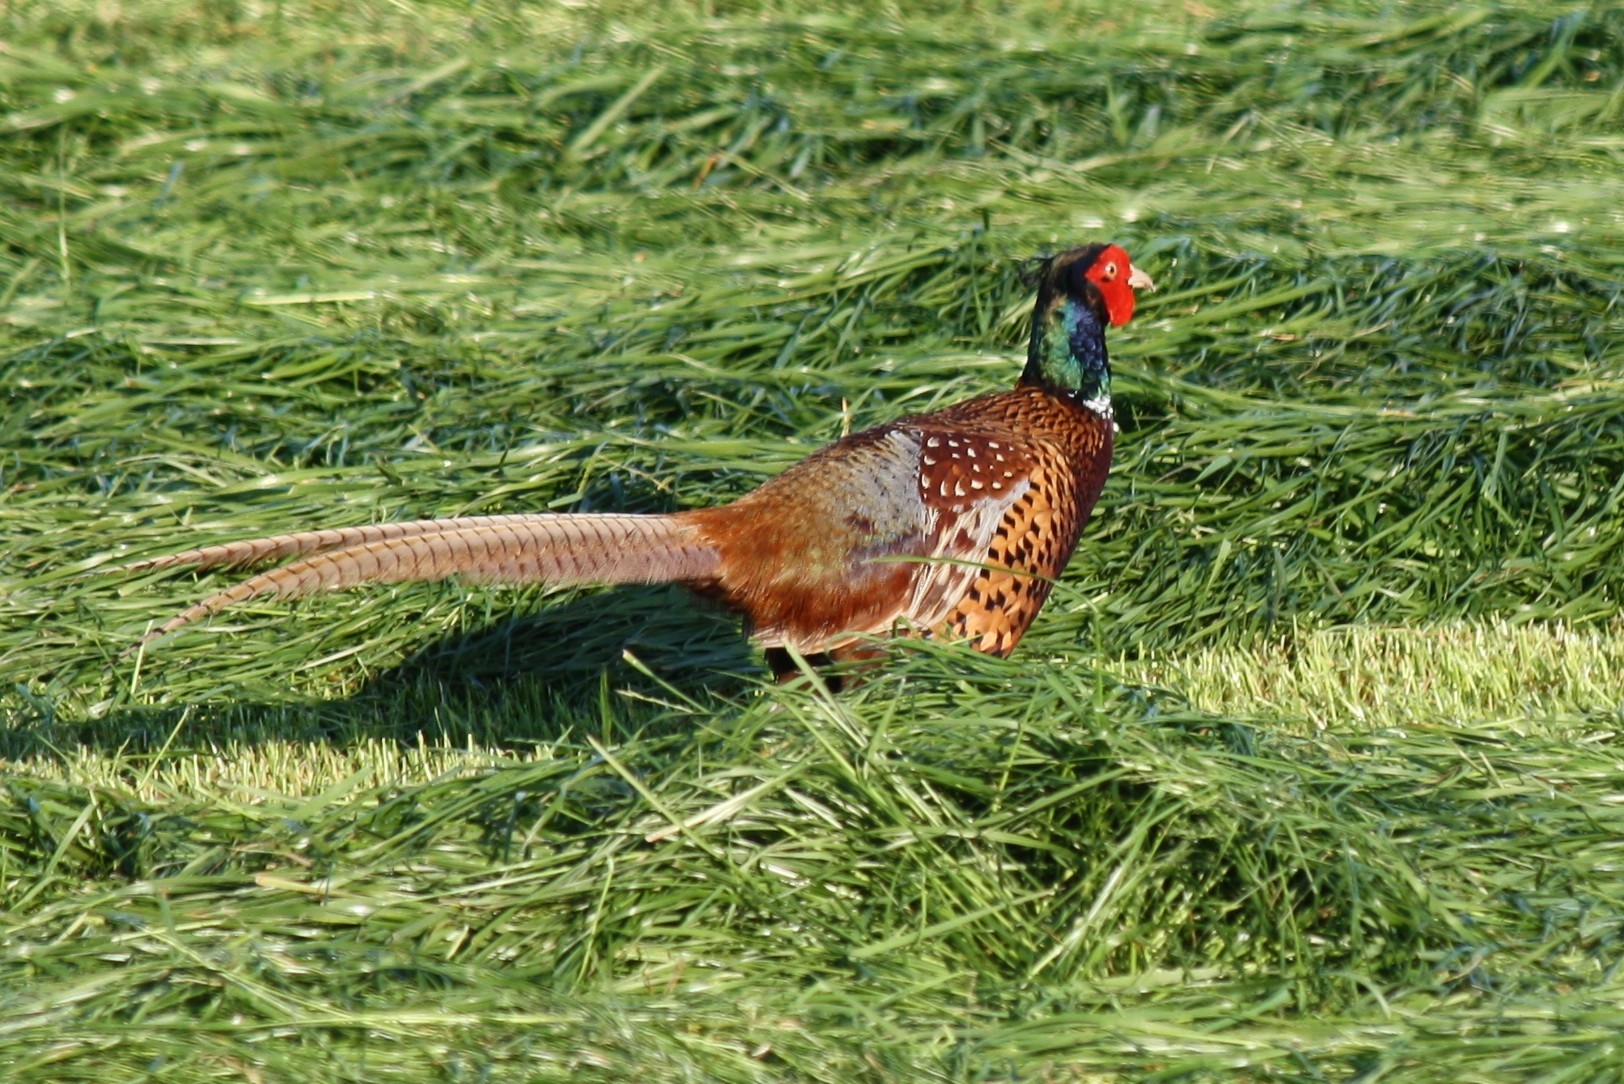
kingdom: Animalia
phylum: Chordata
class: Aves
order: Galliformes
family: Phasianidae
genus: Phasianus
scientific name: Phasianus colchicus
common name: Common pheasant
